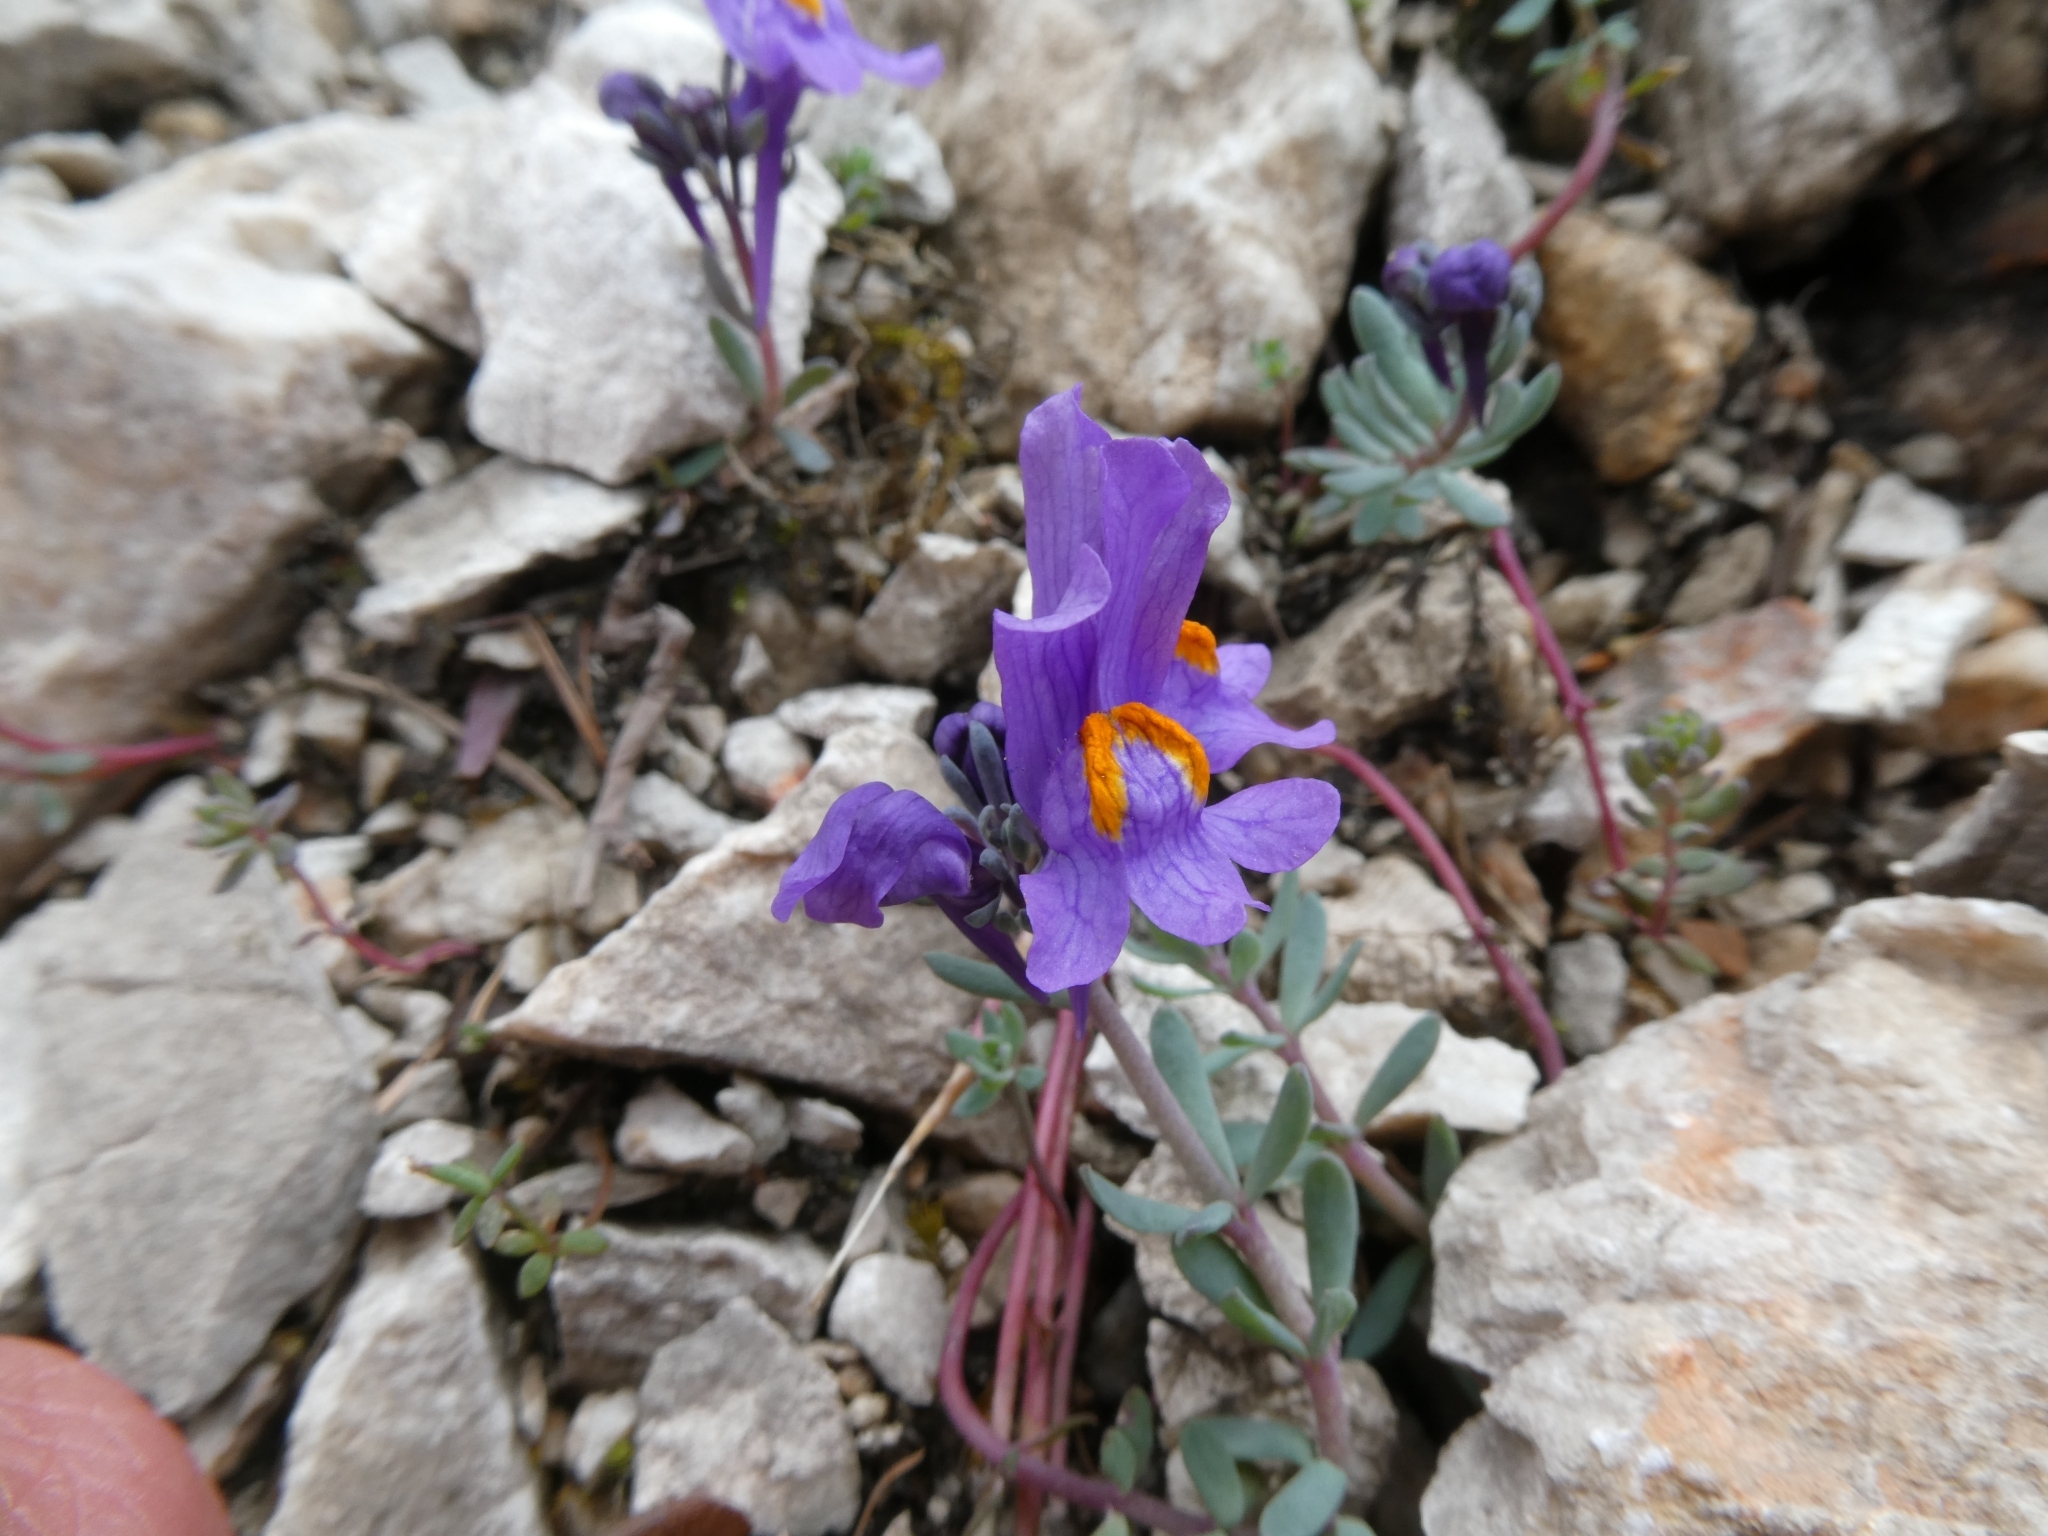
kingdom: Plantae
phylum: Tracheophyta
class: Magnoliopsida
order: Lamiales
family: Plantaginaceae
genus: Linaria
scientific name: Linaria alpina
